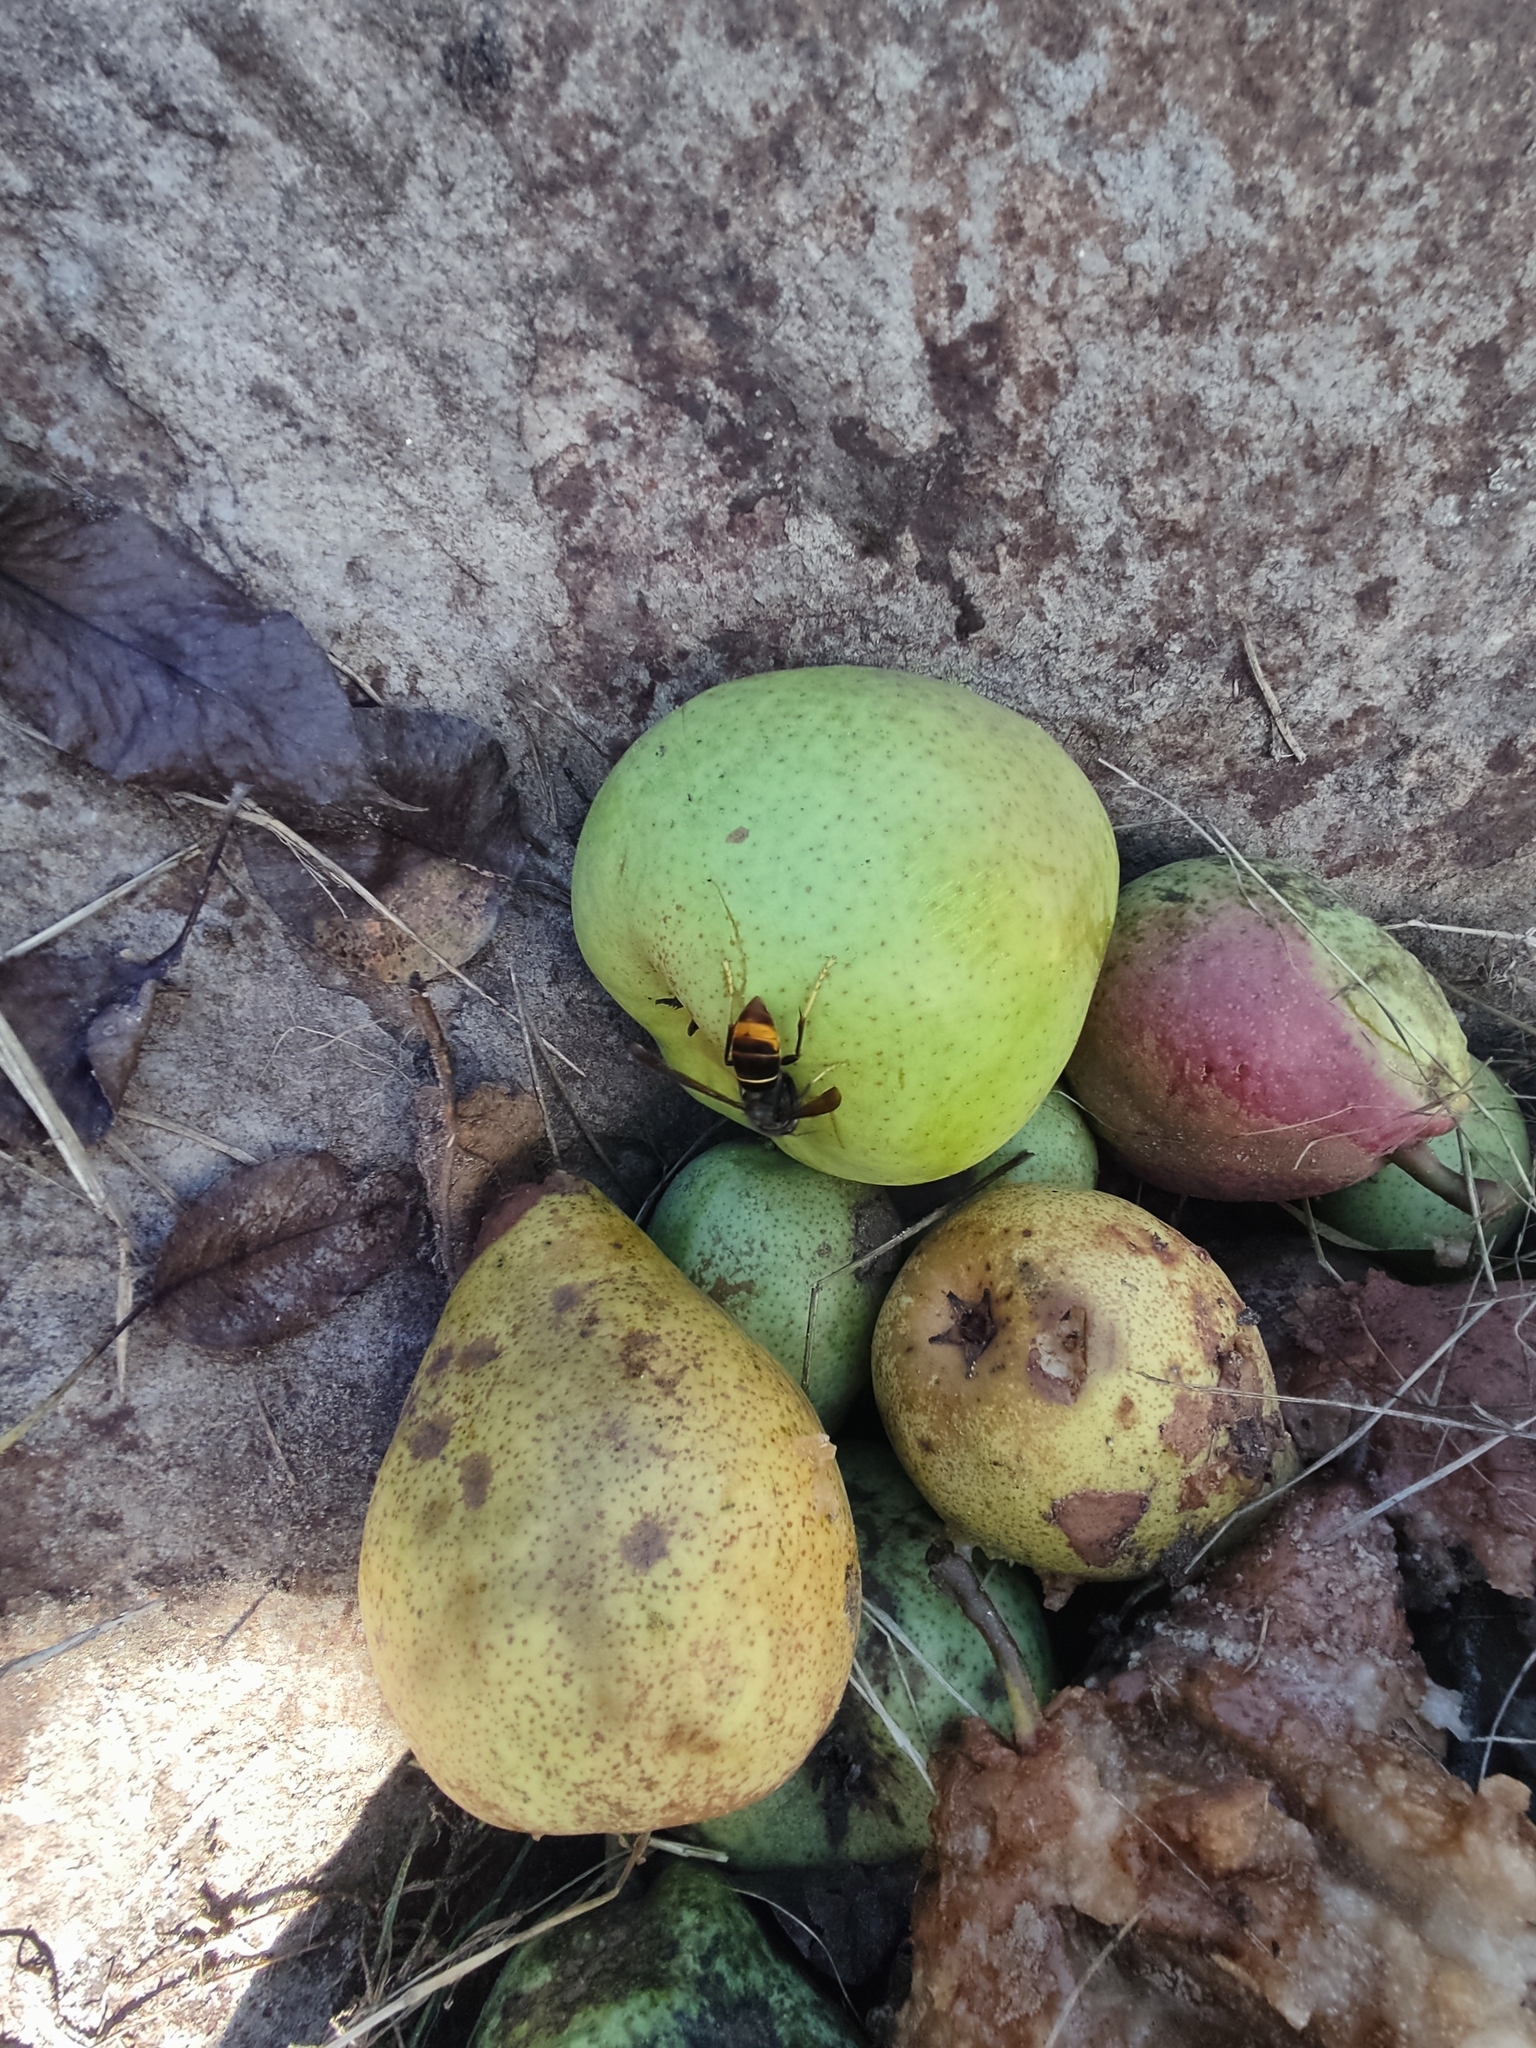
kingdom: Animalia
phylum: Arthropoda
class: Insecta
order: Hymenoptera
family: Vespidae
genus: Vespa
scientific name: Vespa velutina
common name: Asian hornet
